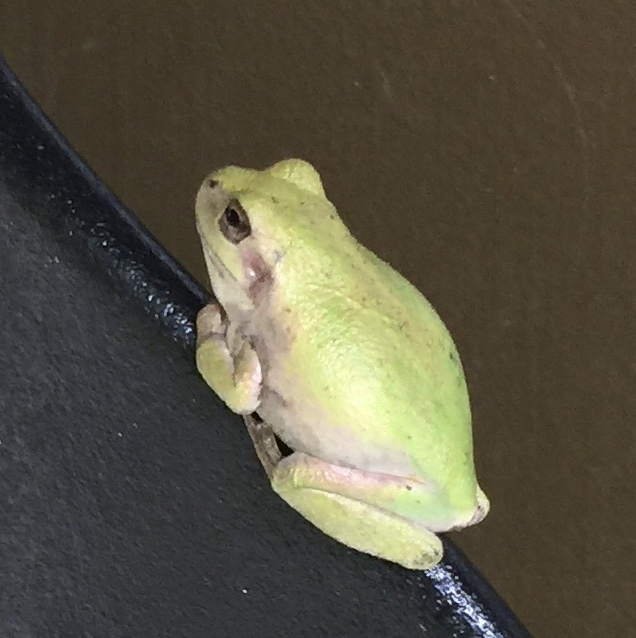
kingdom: Animalia
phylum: Chordata
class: Amphibia
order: Anura
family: Hylidae
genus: Hyla
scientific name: Hyla
